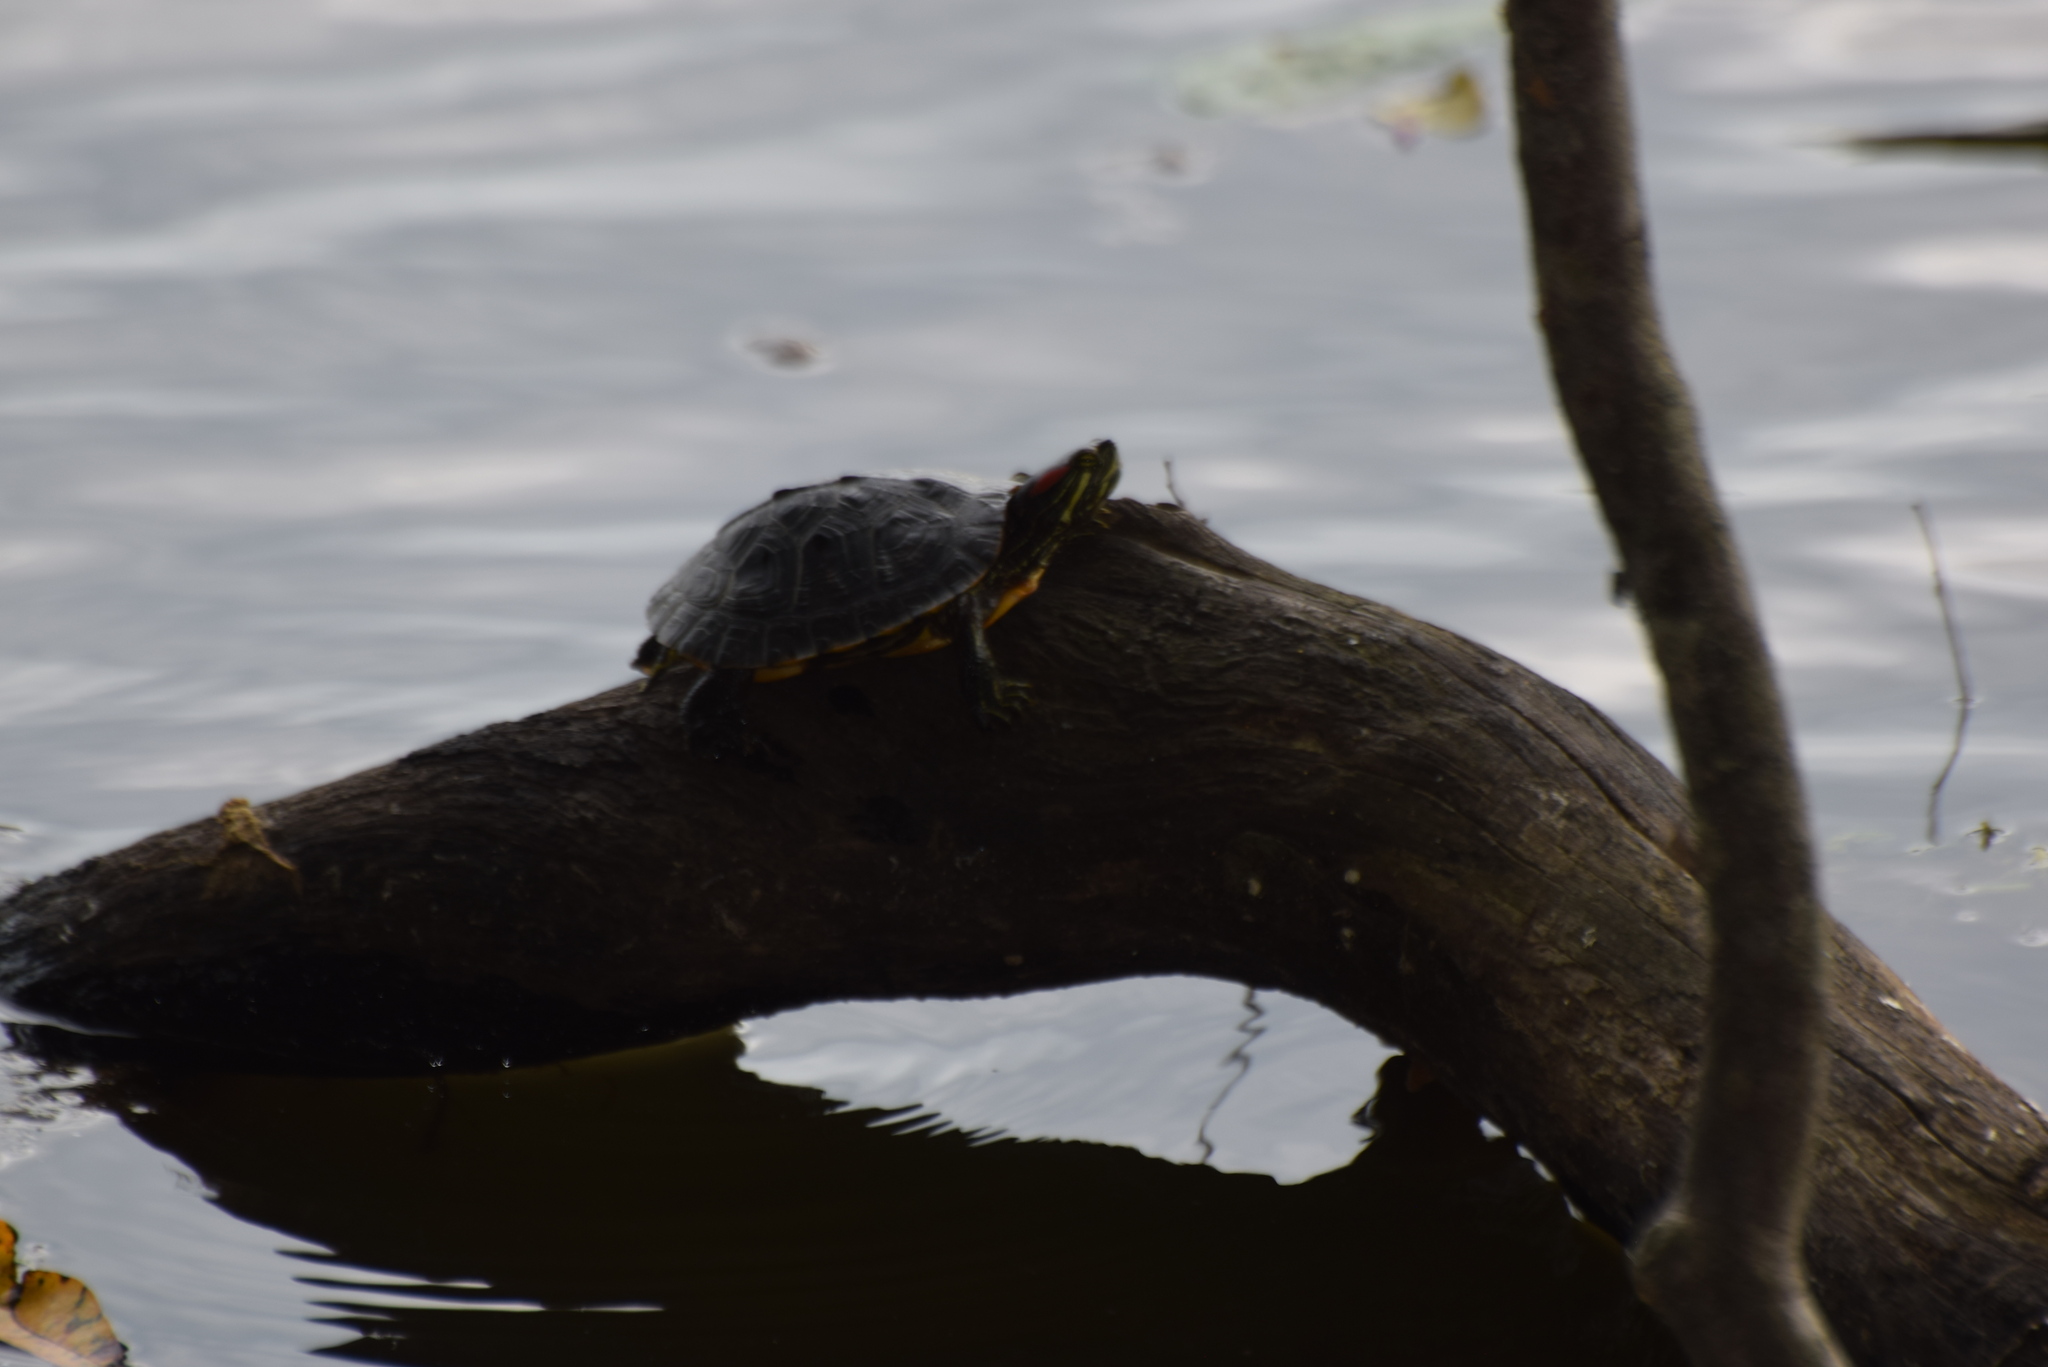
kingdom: Animalia
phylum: Chordata
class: Testudines
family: Emydidae
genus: Trachemys
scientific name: Trachemys scripta
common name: Slider
